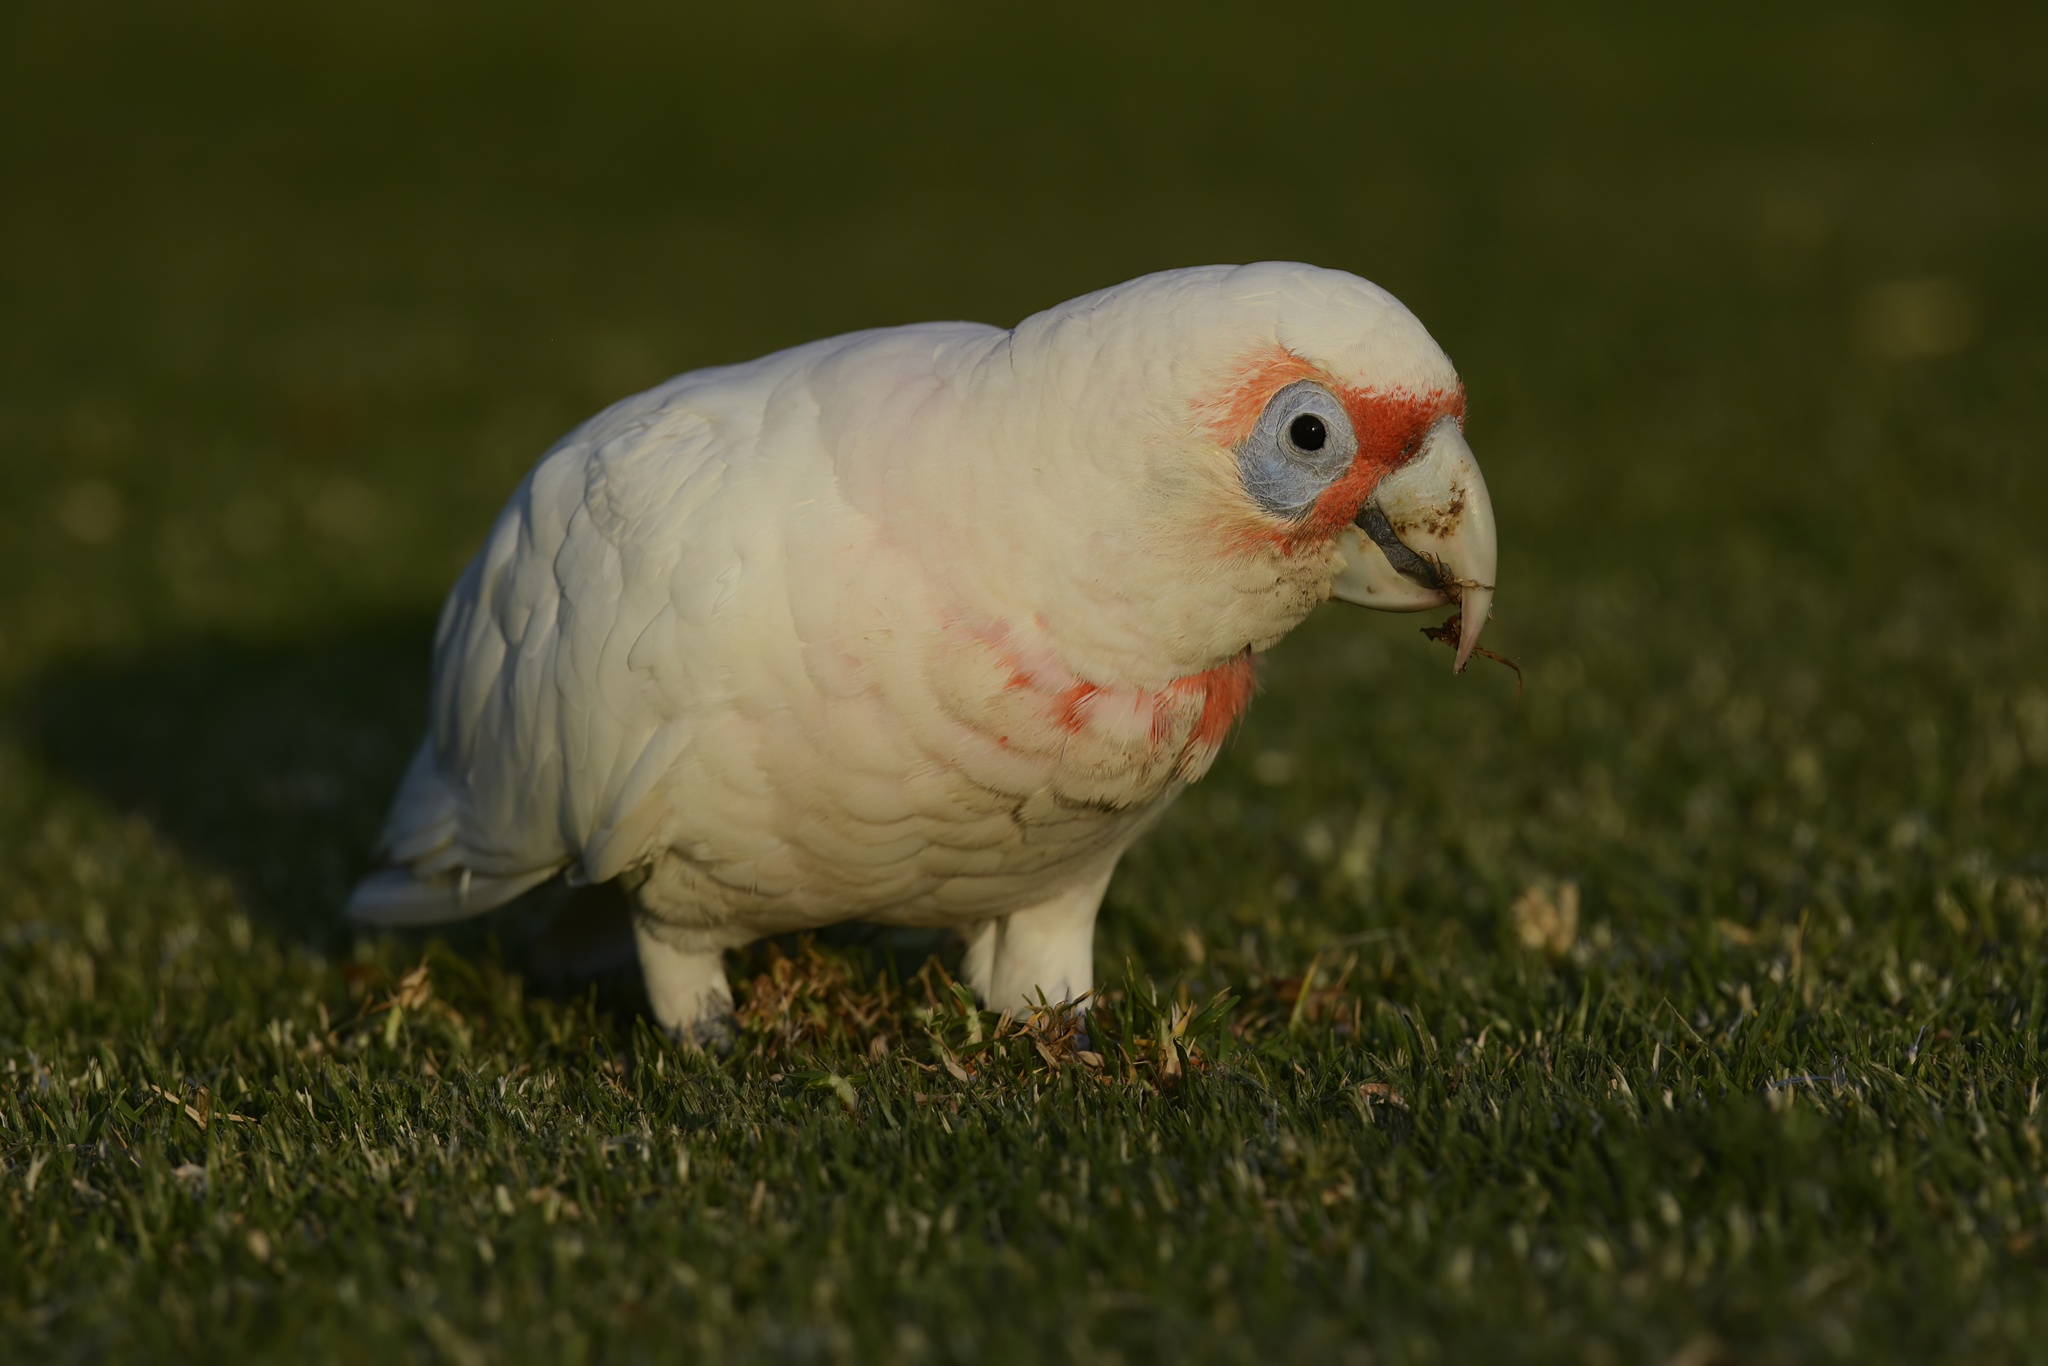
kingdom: Animalia
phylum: Chordata
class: Aves
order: Psittaciformes
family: Psittacidae
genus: Cacatua
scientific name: Cacatua tenuirostris
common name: Long-billed corella
